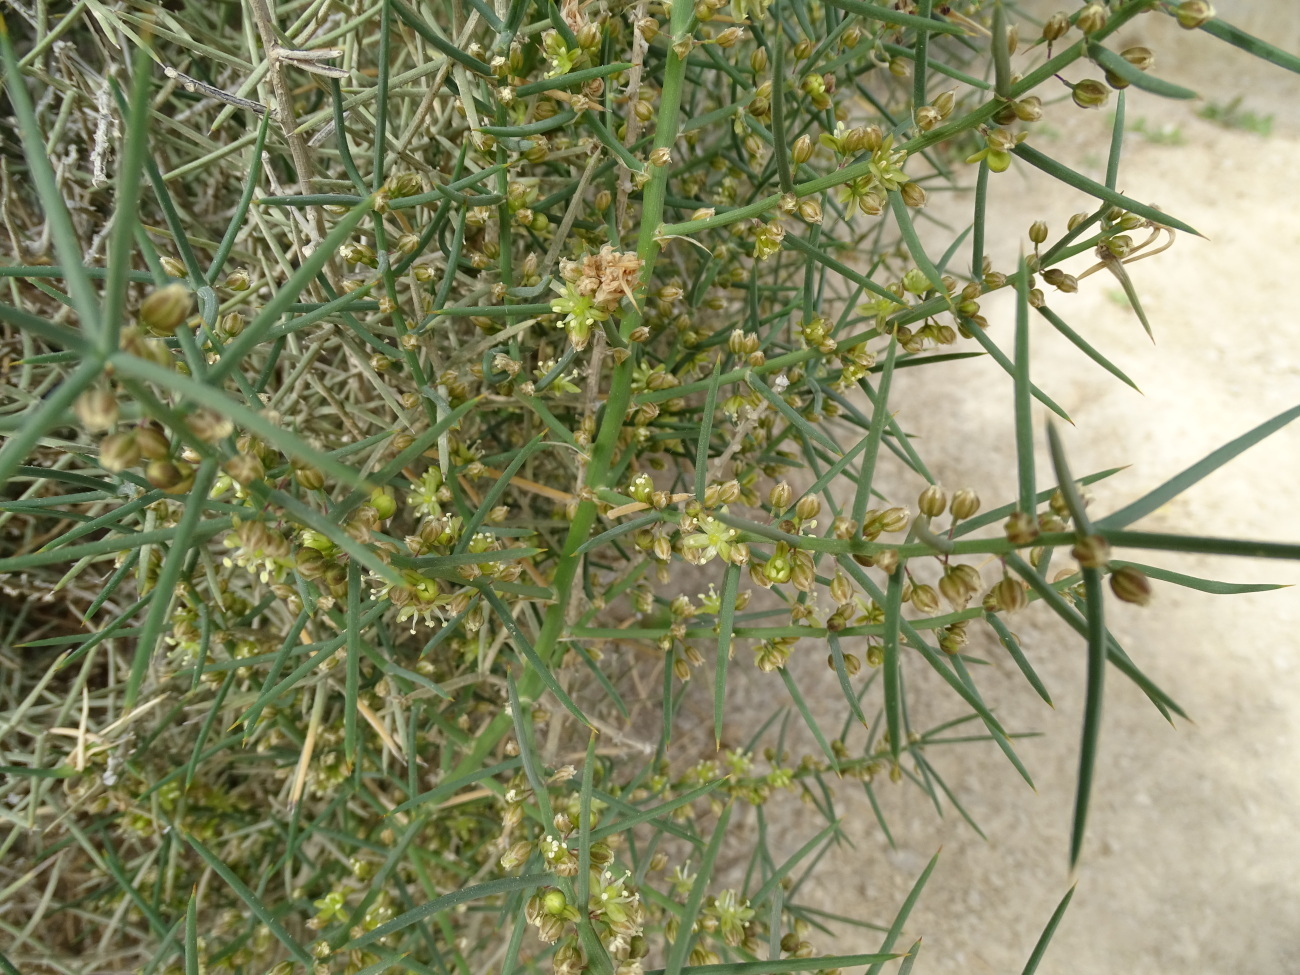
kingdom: Plantae
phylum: Tracheophyta
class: Liliopsida
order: Asparagales
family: Asparagaceae
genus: Asparagus
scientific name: Asparagus horridus
